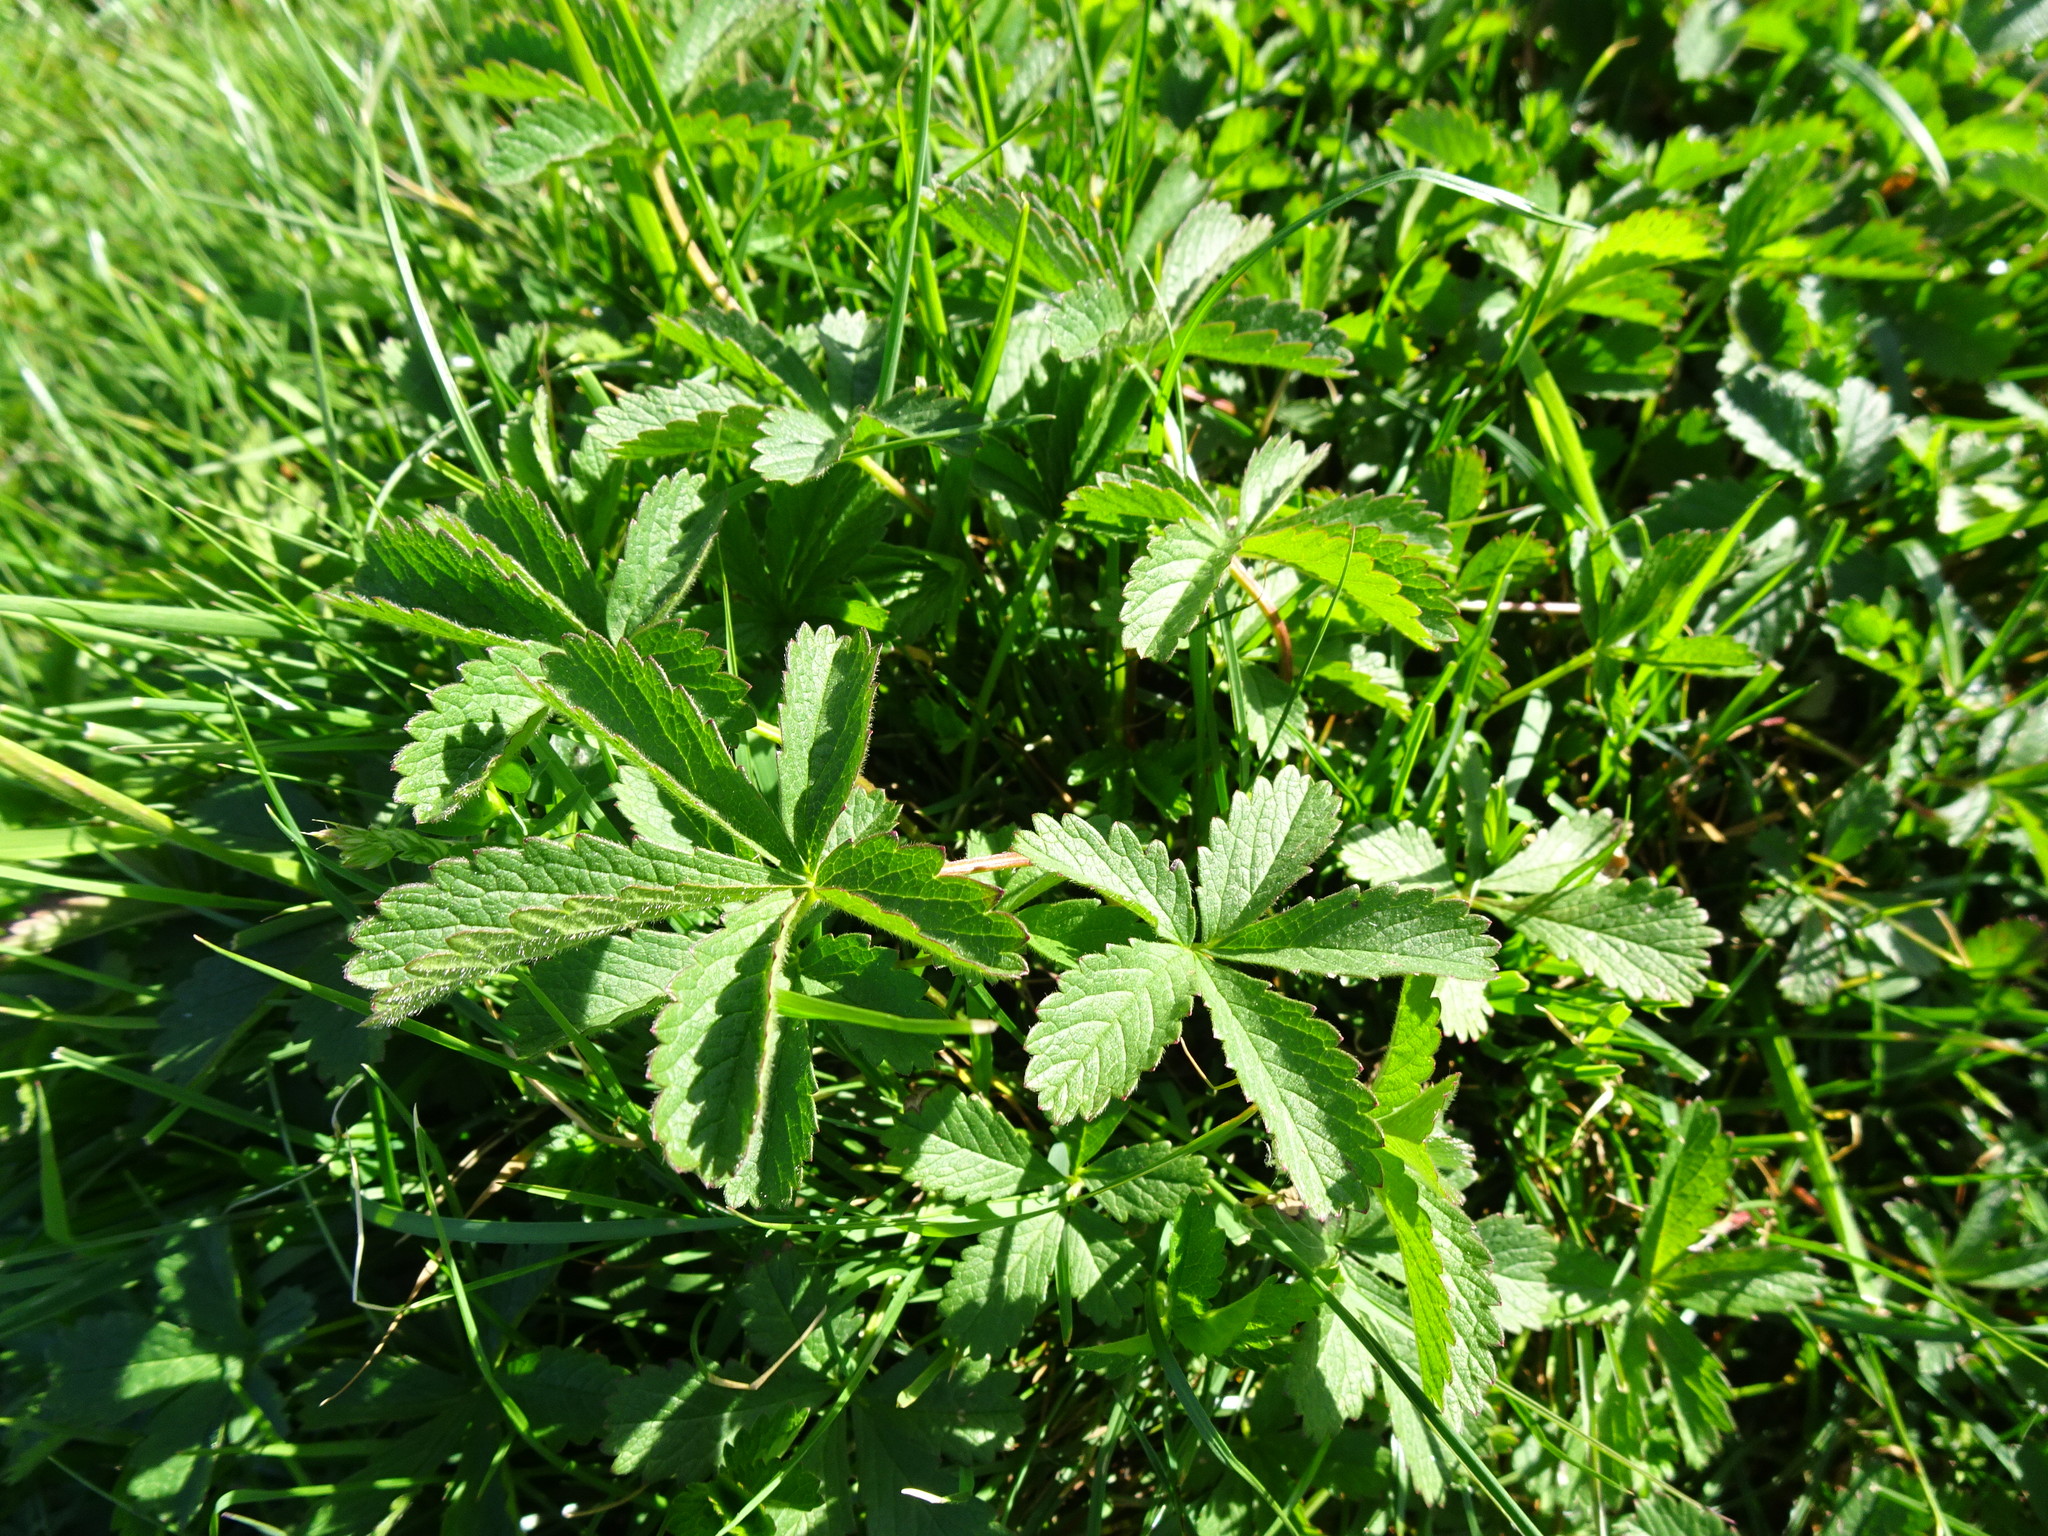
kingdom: Plantae
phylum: Tracheophyta
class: Magnoliopsida
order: Rosales
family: Rosaceae
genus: Potentilla
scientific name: Potentilla reptans
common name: Creeping cinquefoil
